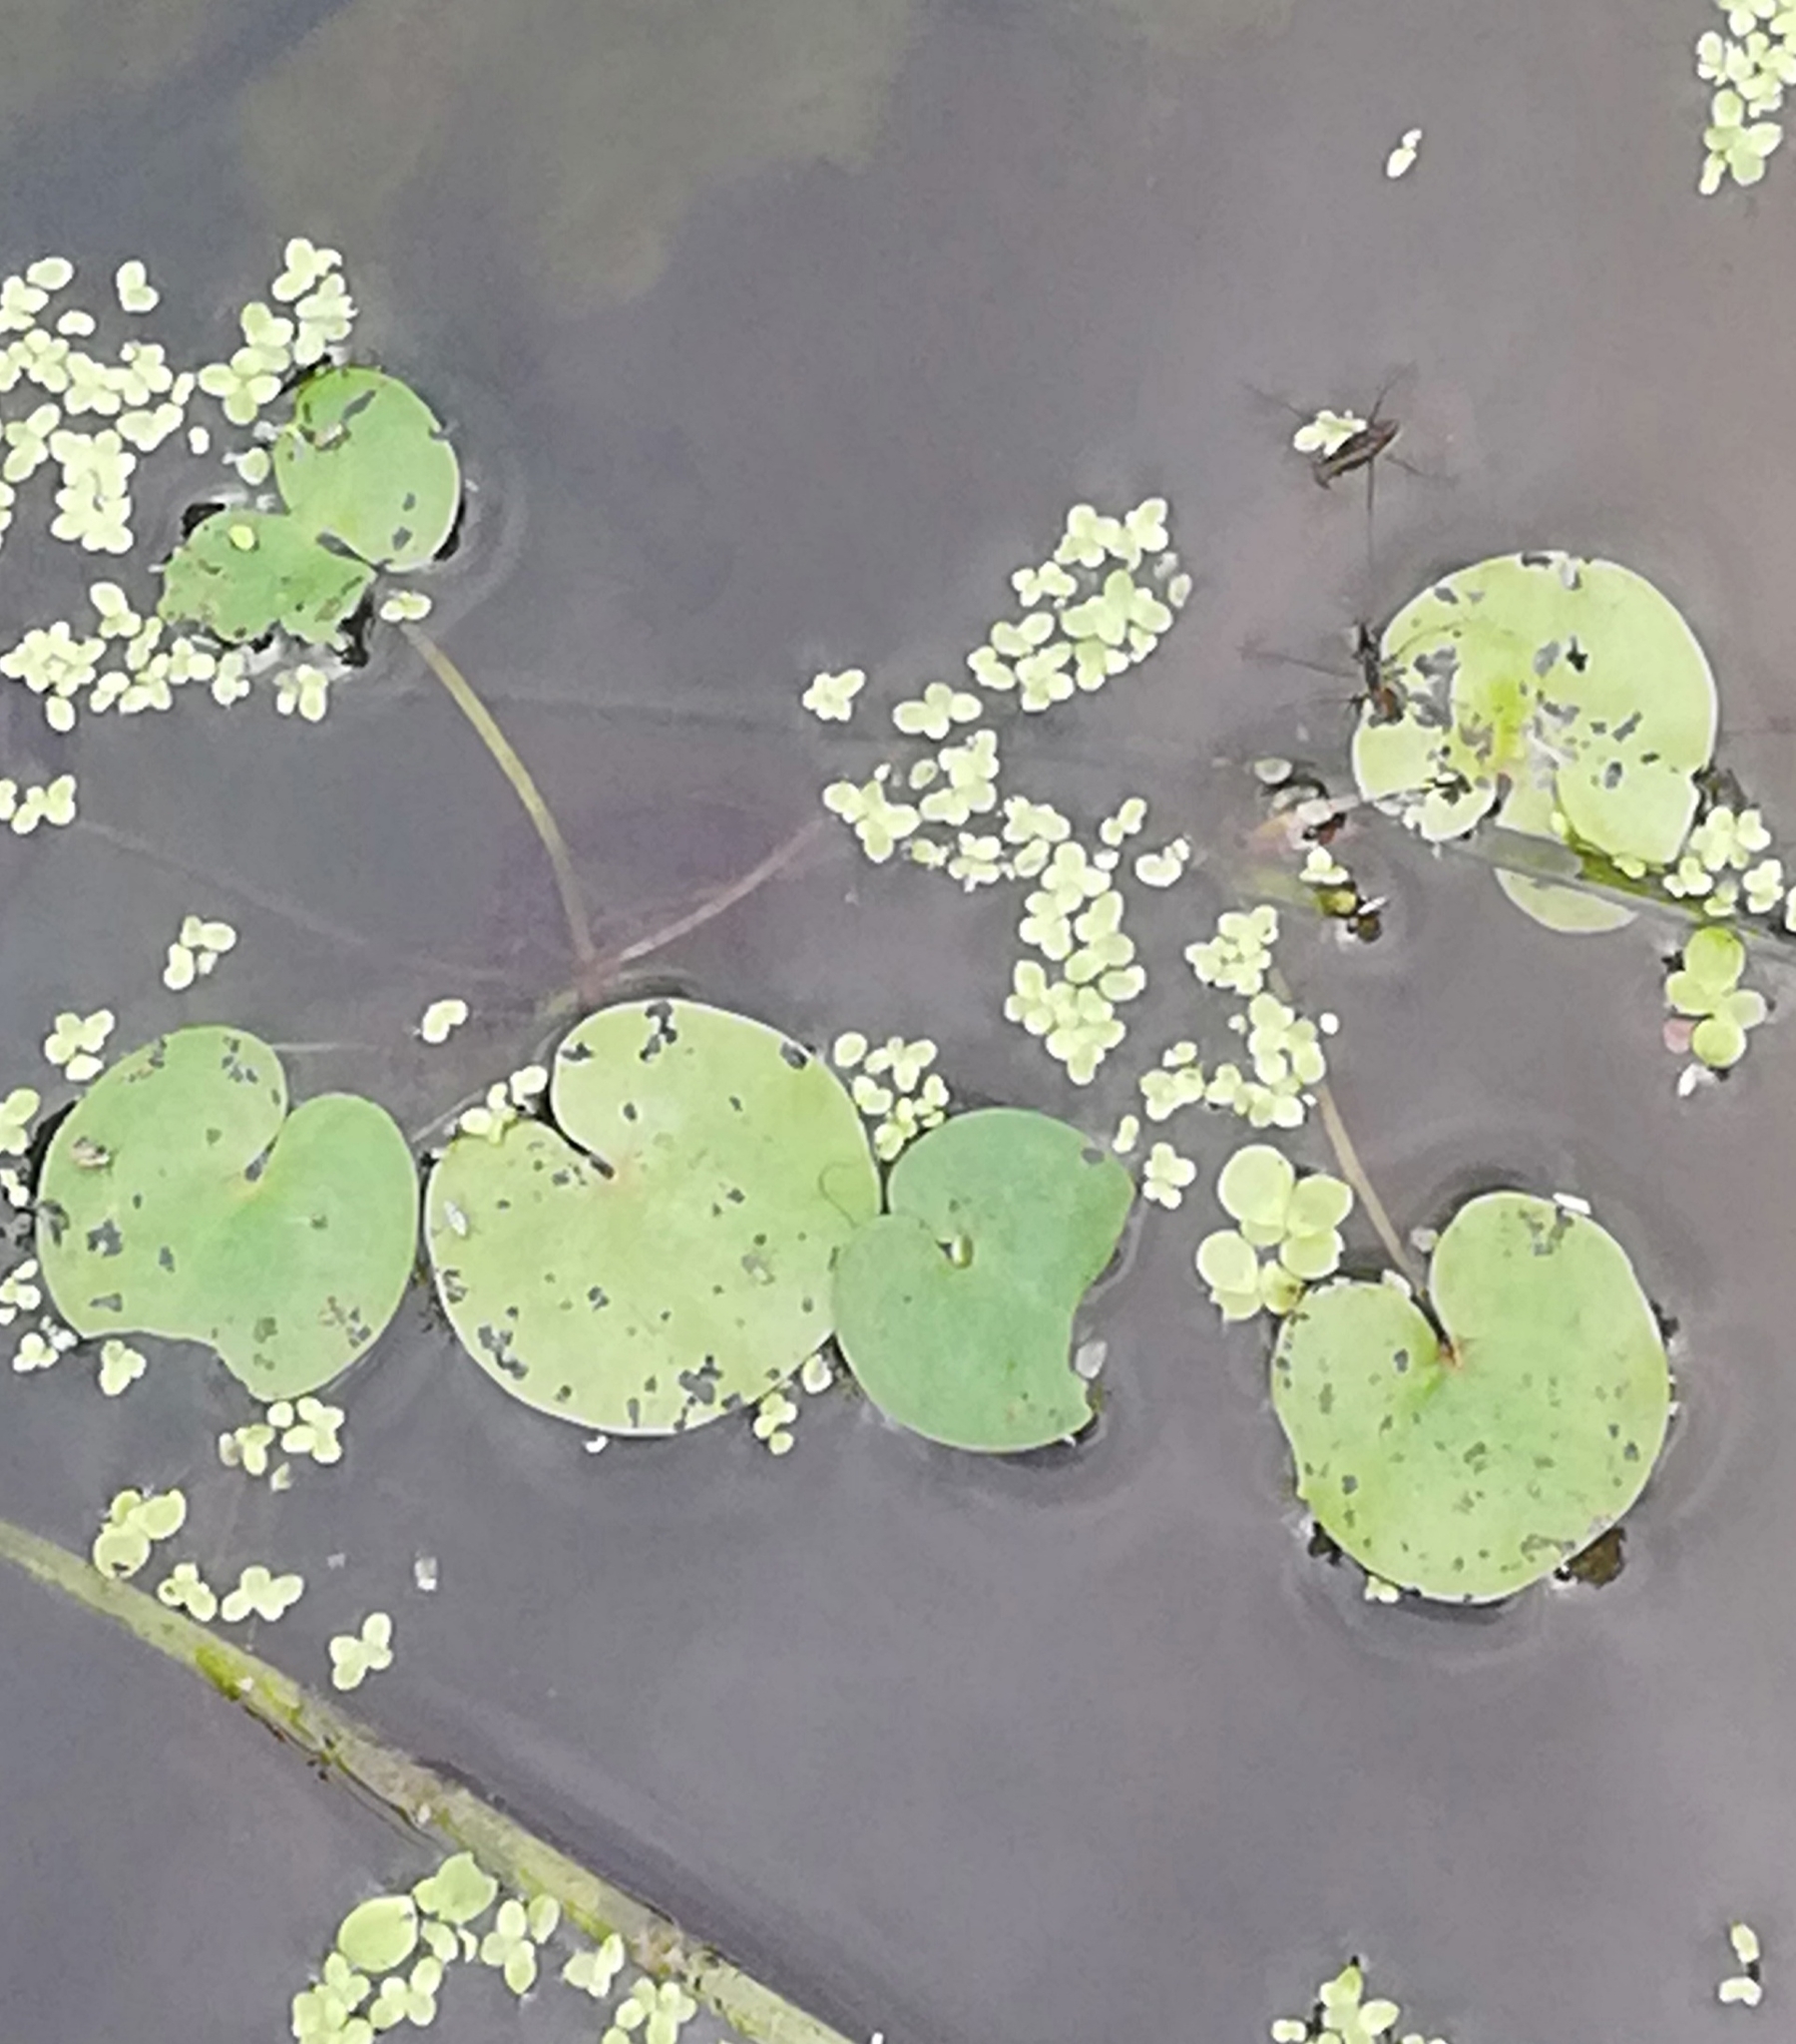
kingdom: Plantae
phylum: Tracheophyta
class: Liliopsida
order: Alismatales
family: Hydrocharitaceae
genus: Hydrocharis
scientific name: Hydrocharis morsus-ranae
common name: Frogbit
